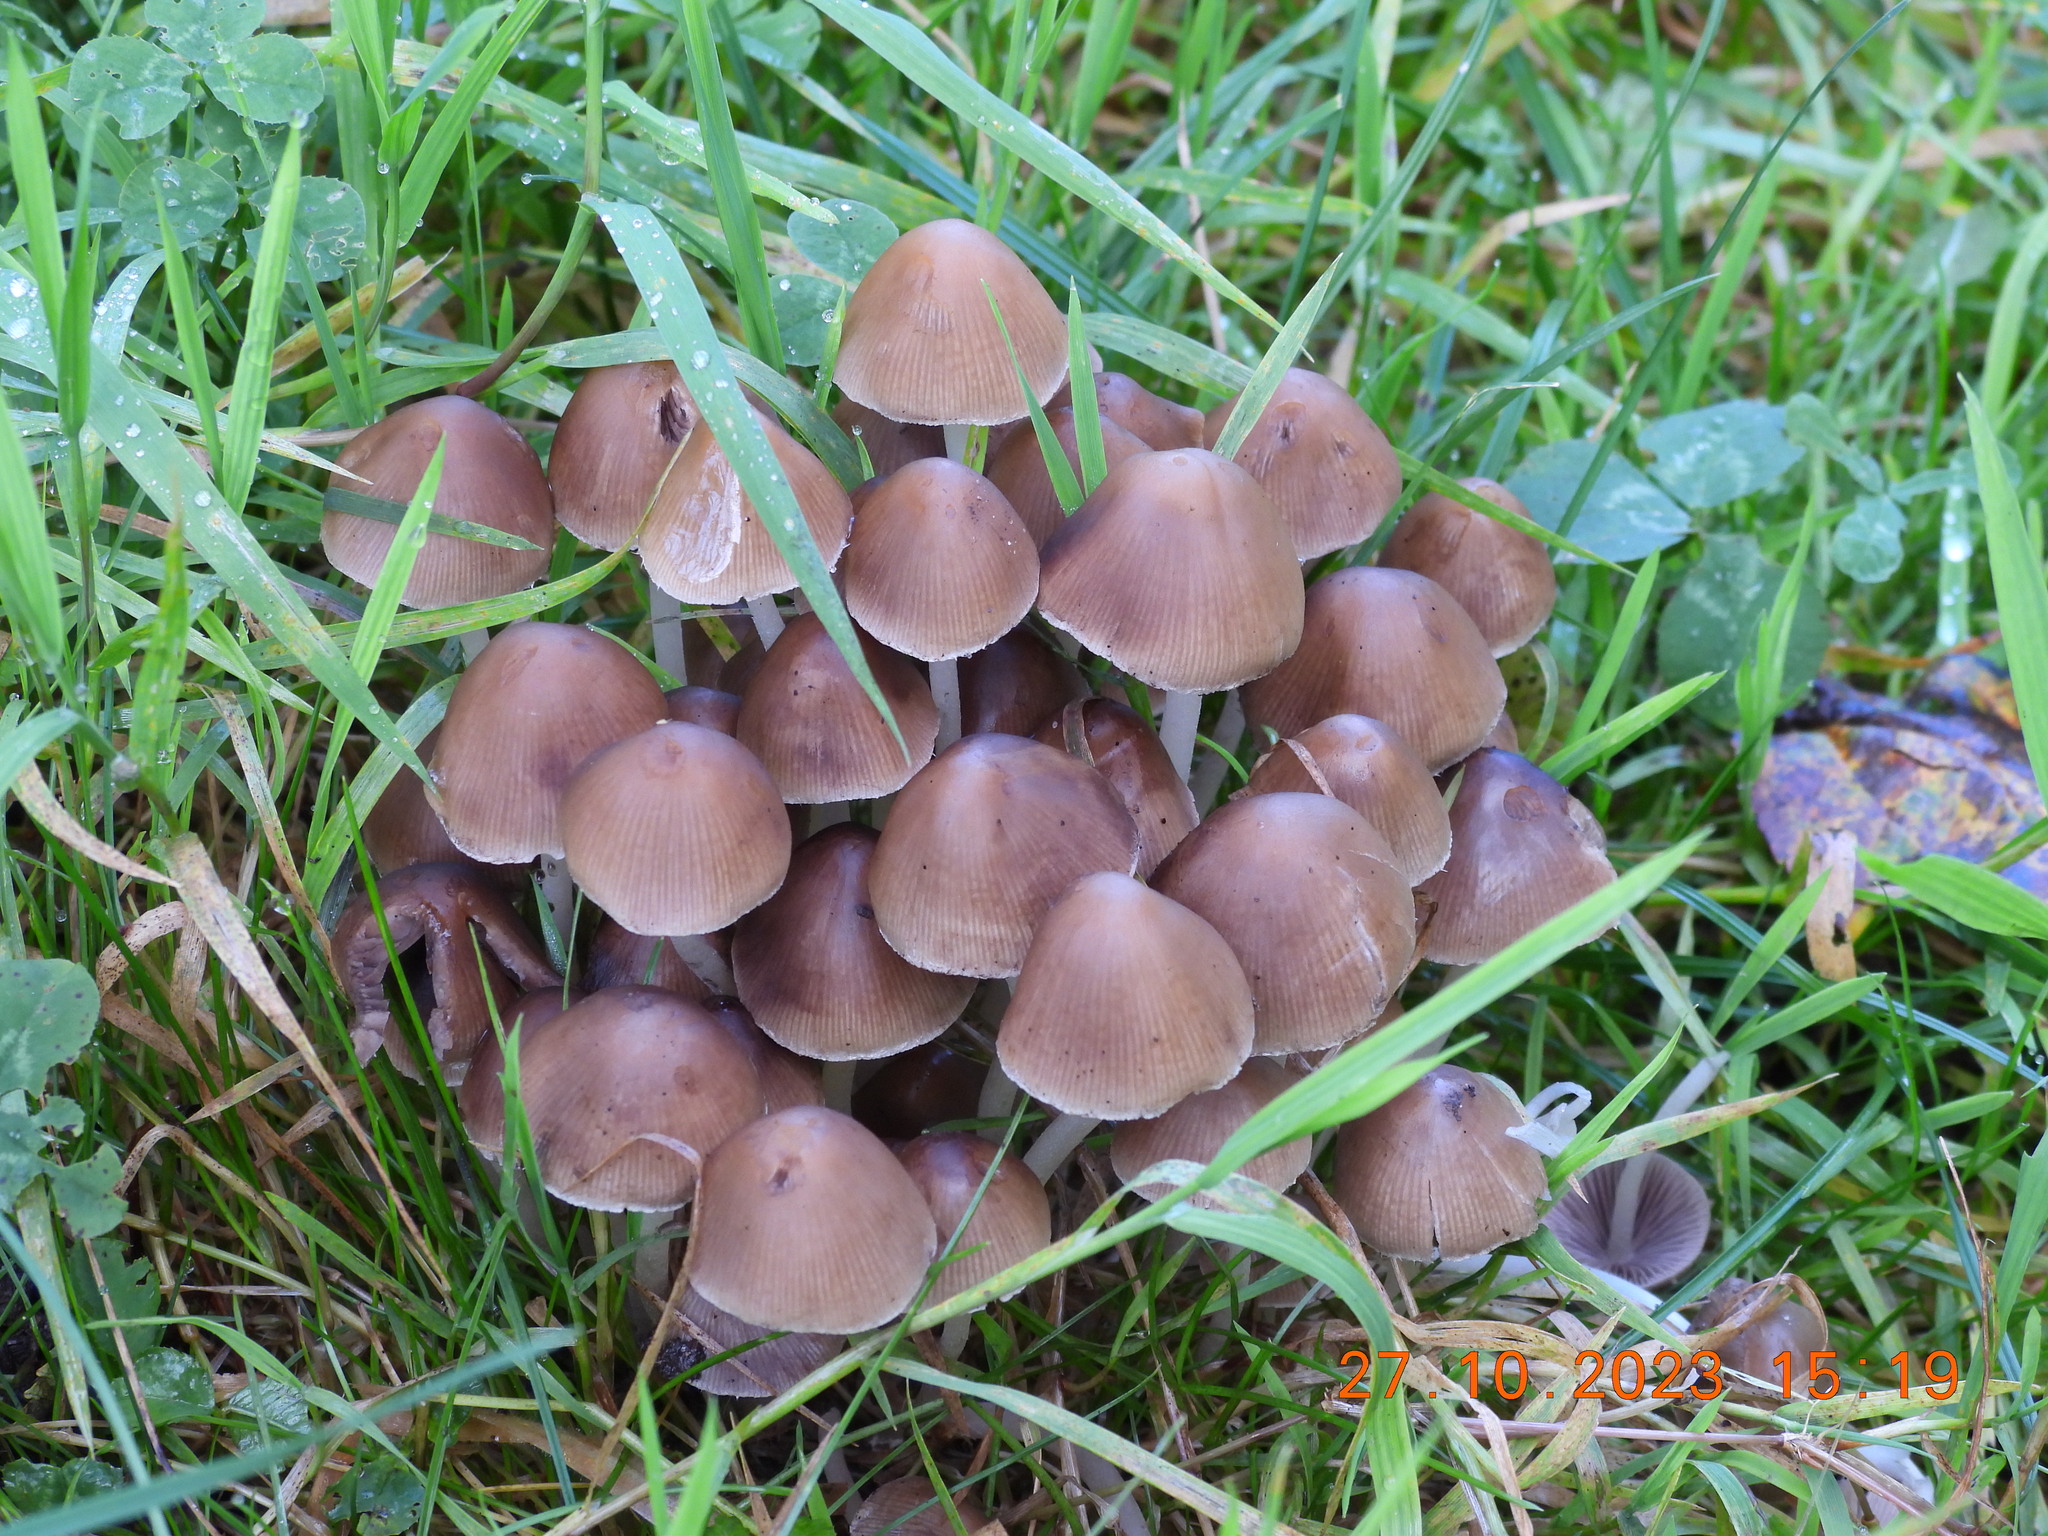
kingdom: Fungi
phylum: Basidiomycota
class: Agaricomycetes
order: Agaricales
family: Psathyrellaceae
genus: Britzelmayria
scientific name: Britzelmayria multipedata
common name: Clustered brittlestem
